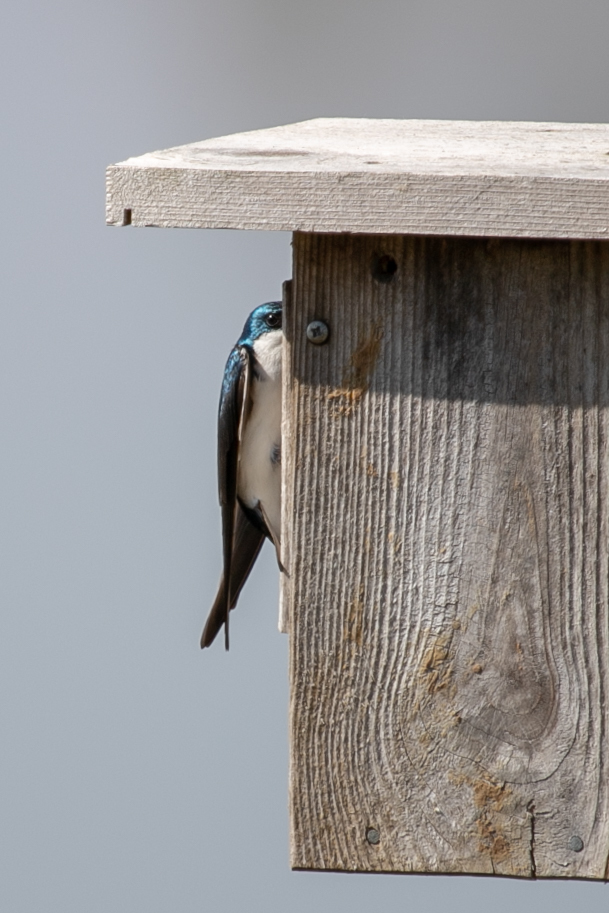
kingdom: Animalia
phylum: Chordata
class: Aves
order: Passeriformes
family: Hirundinidae
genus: Tachycineta
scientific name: Tachycineta bicolor
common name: Tree swallow
